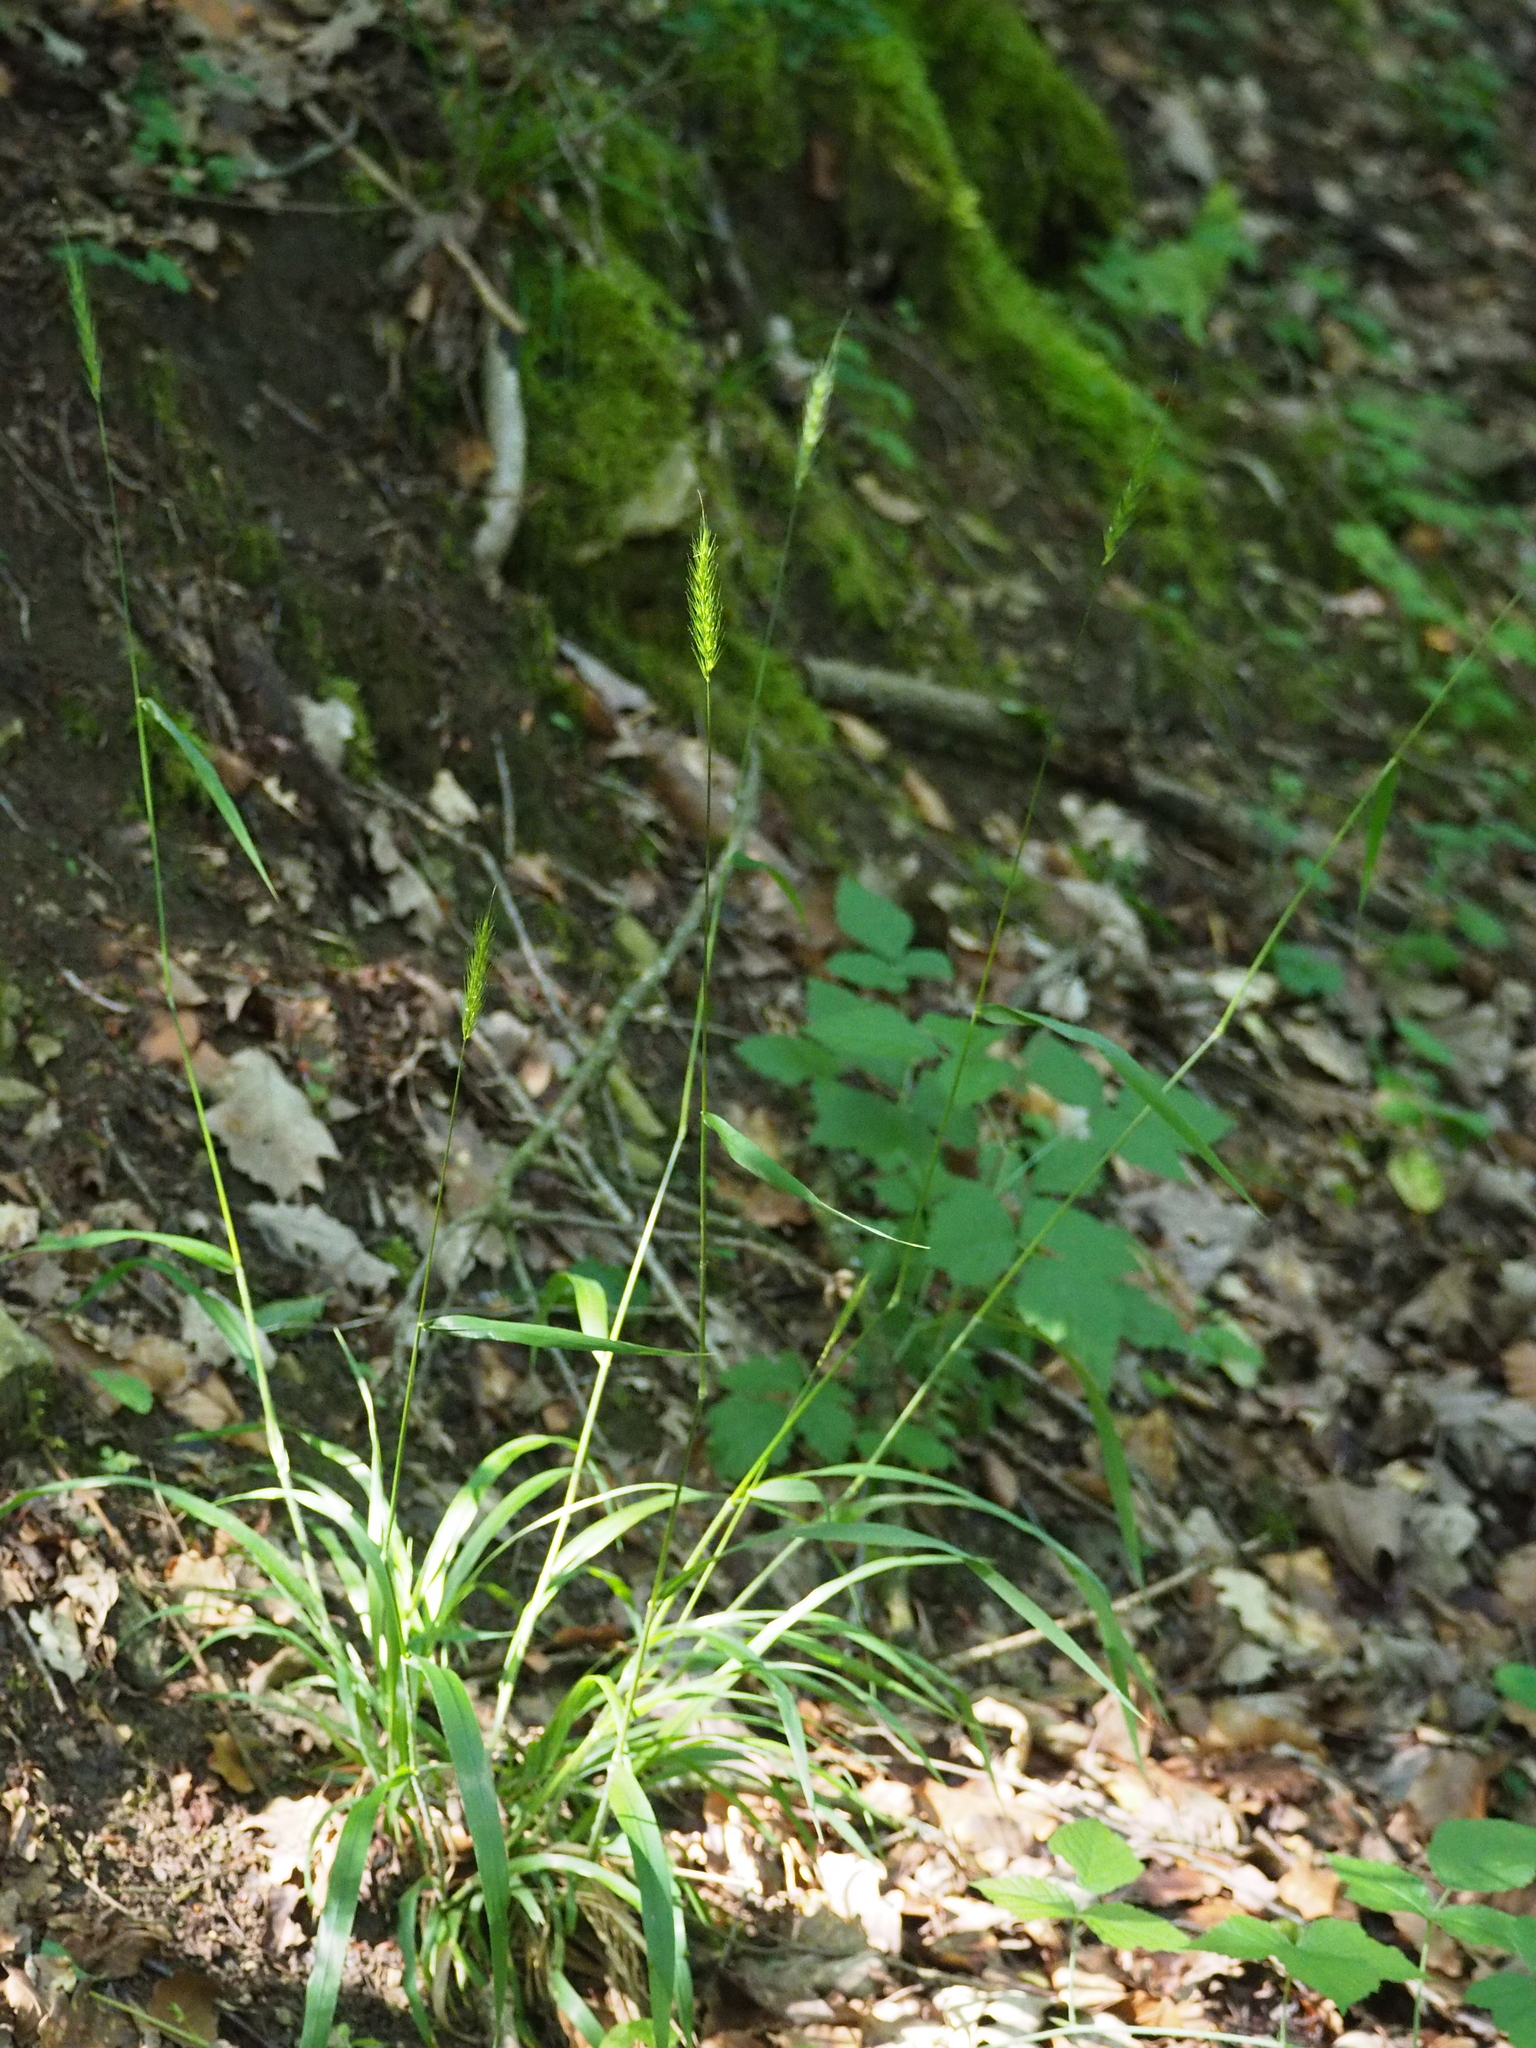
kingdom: Plantae
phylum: Tracheophyta
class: Liliopsida
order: Poales
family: Poaceae
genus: Hordelymus
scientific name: Hordelymus europaeus
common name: Wood-barley
